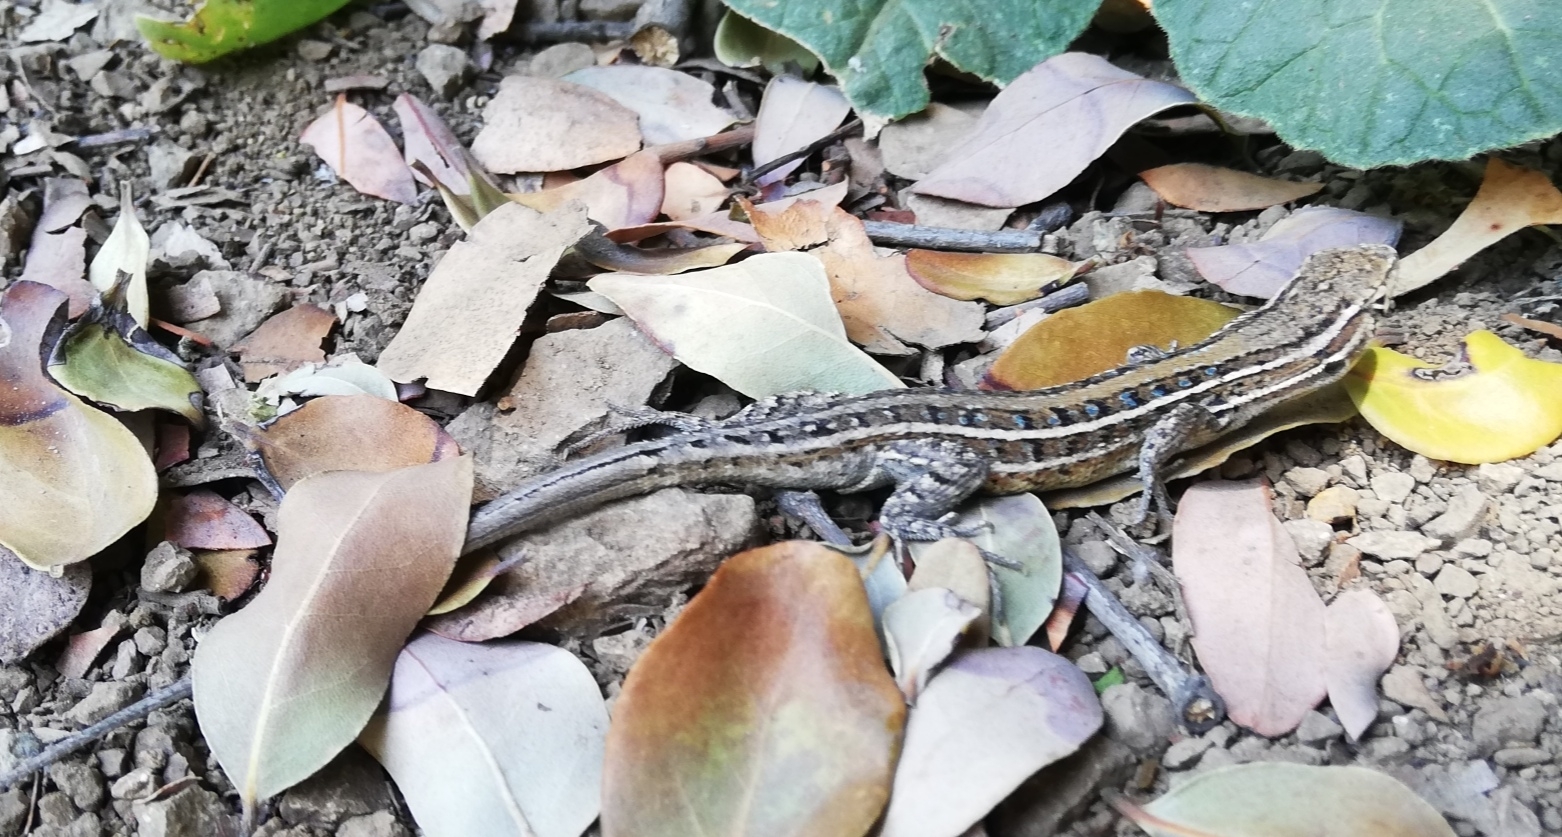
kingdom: Animalia
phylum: Chordata
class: Squamata
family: Liolaemidae
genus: Liolaemus
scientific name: Liolaemus lemniscatus
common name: Wreath tree iguana
